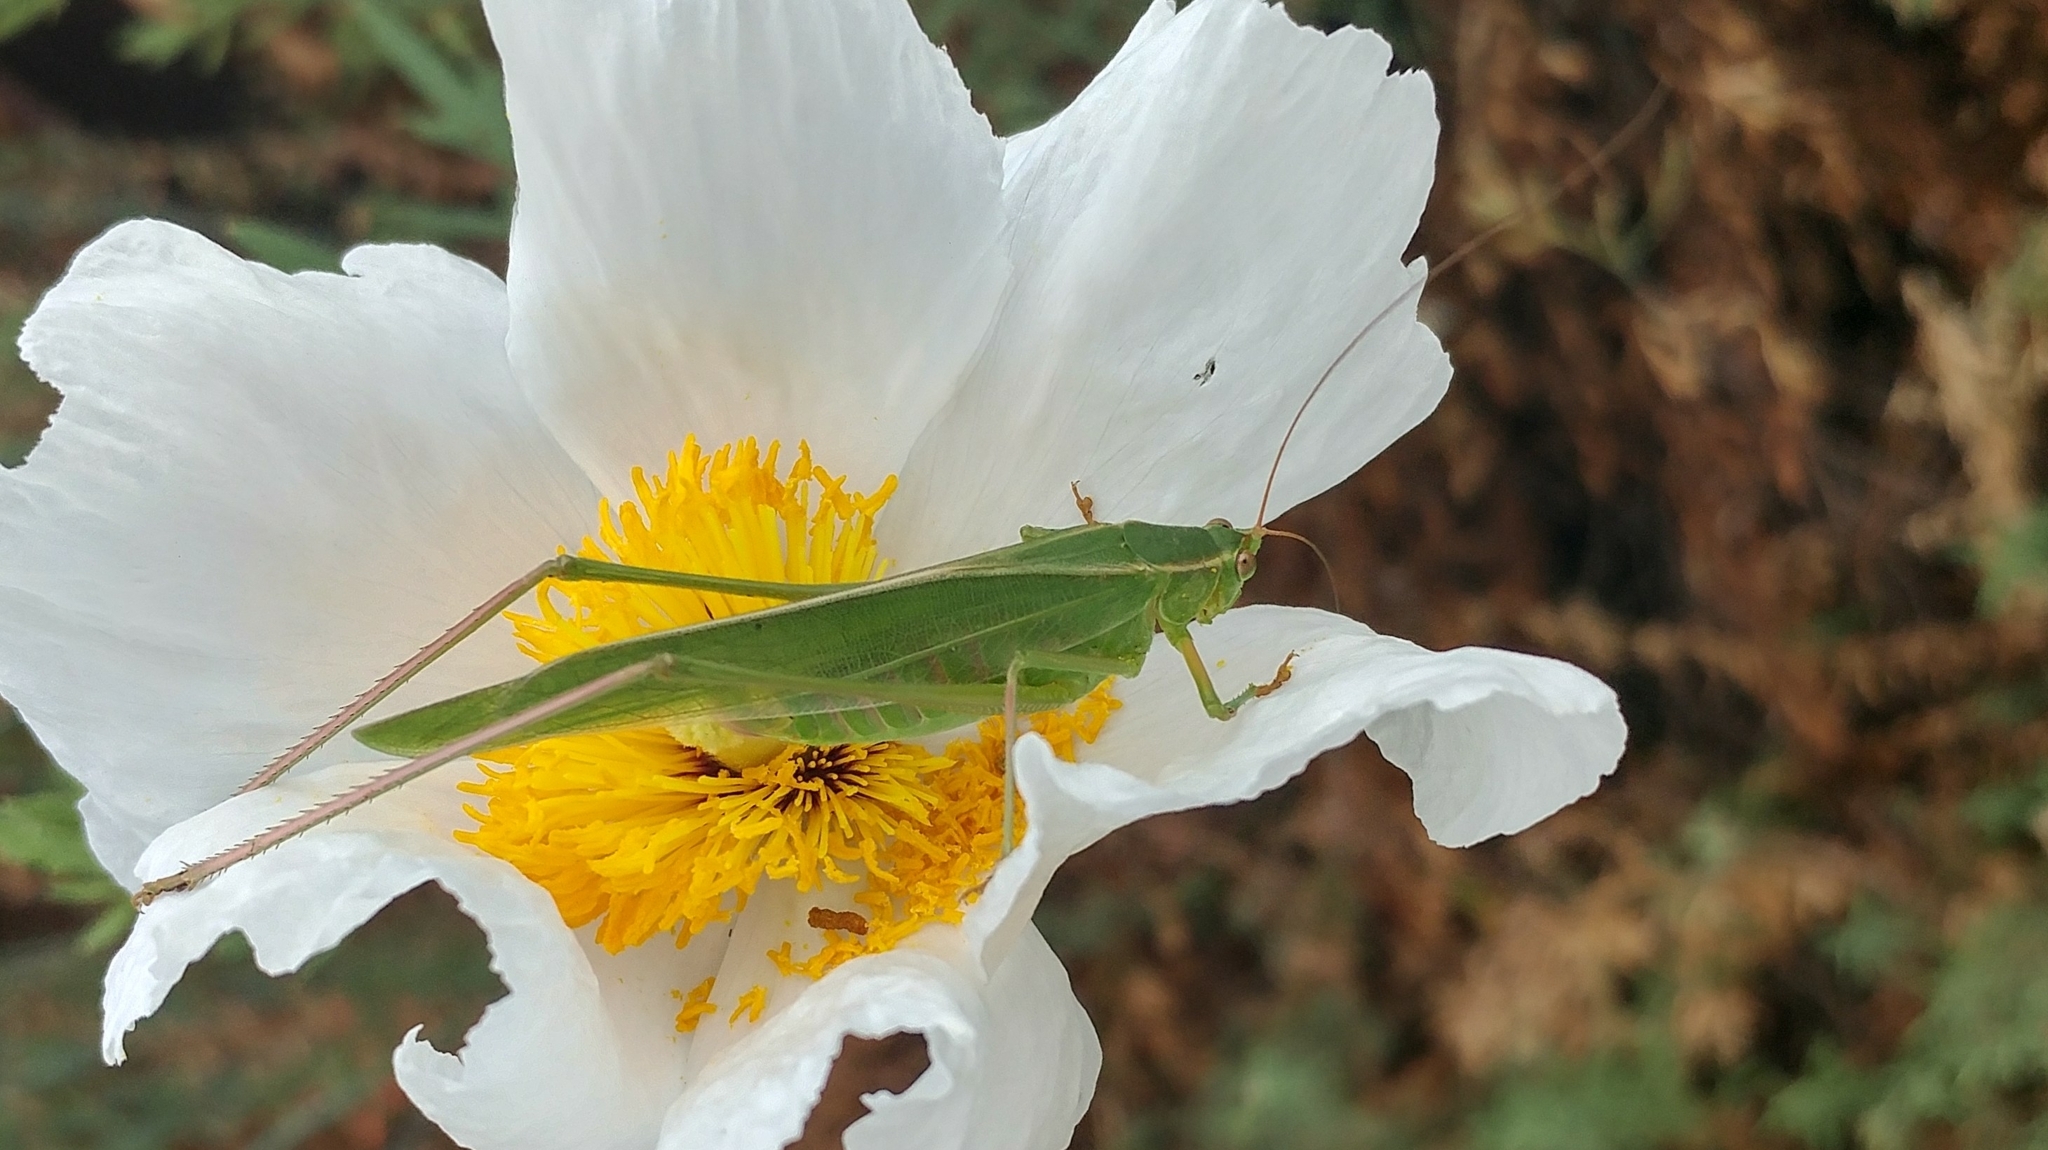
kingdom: Animalia
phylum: Arthropoda
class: Insecta
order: Orthoptera
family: Tettigoniidae
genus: Scudderia
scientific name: Scudderia
